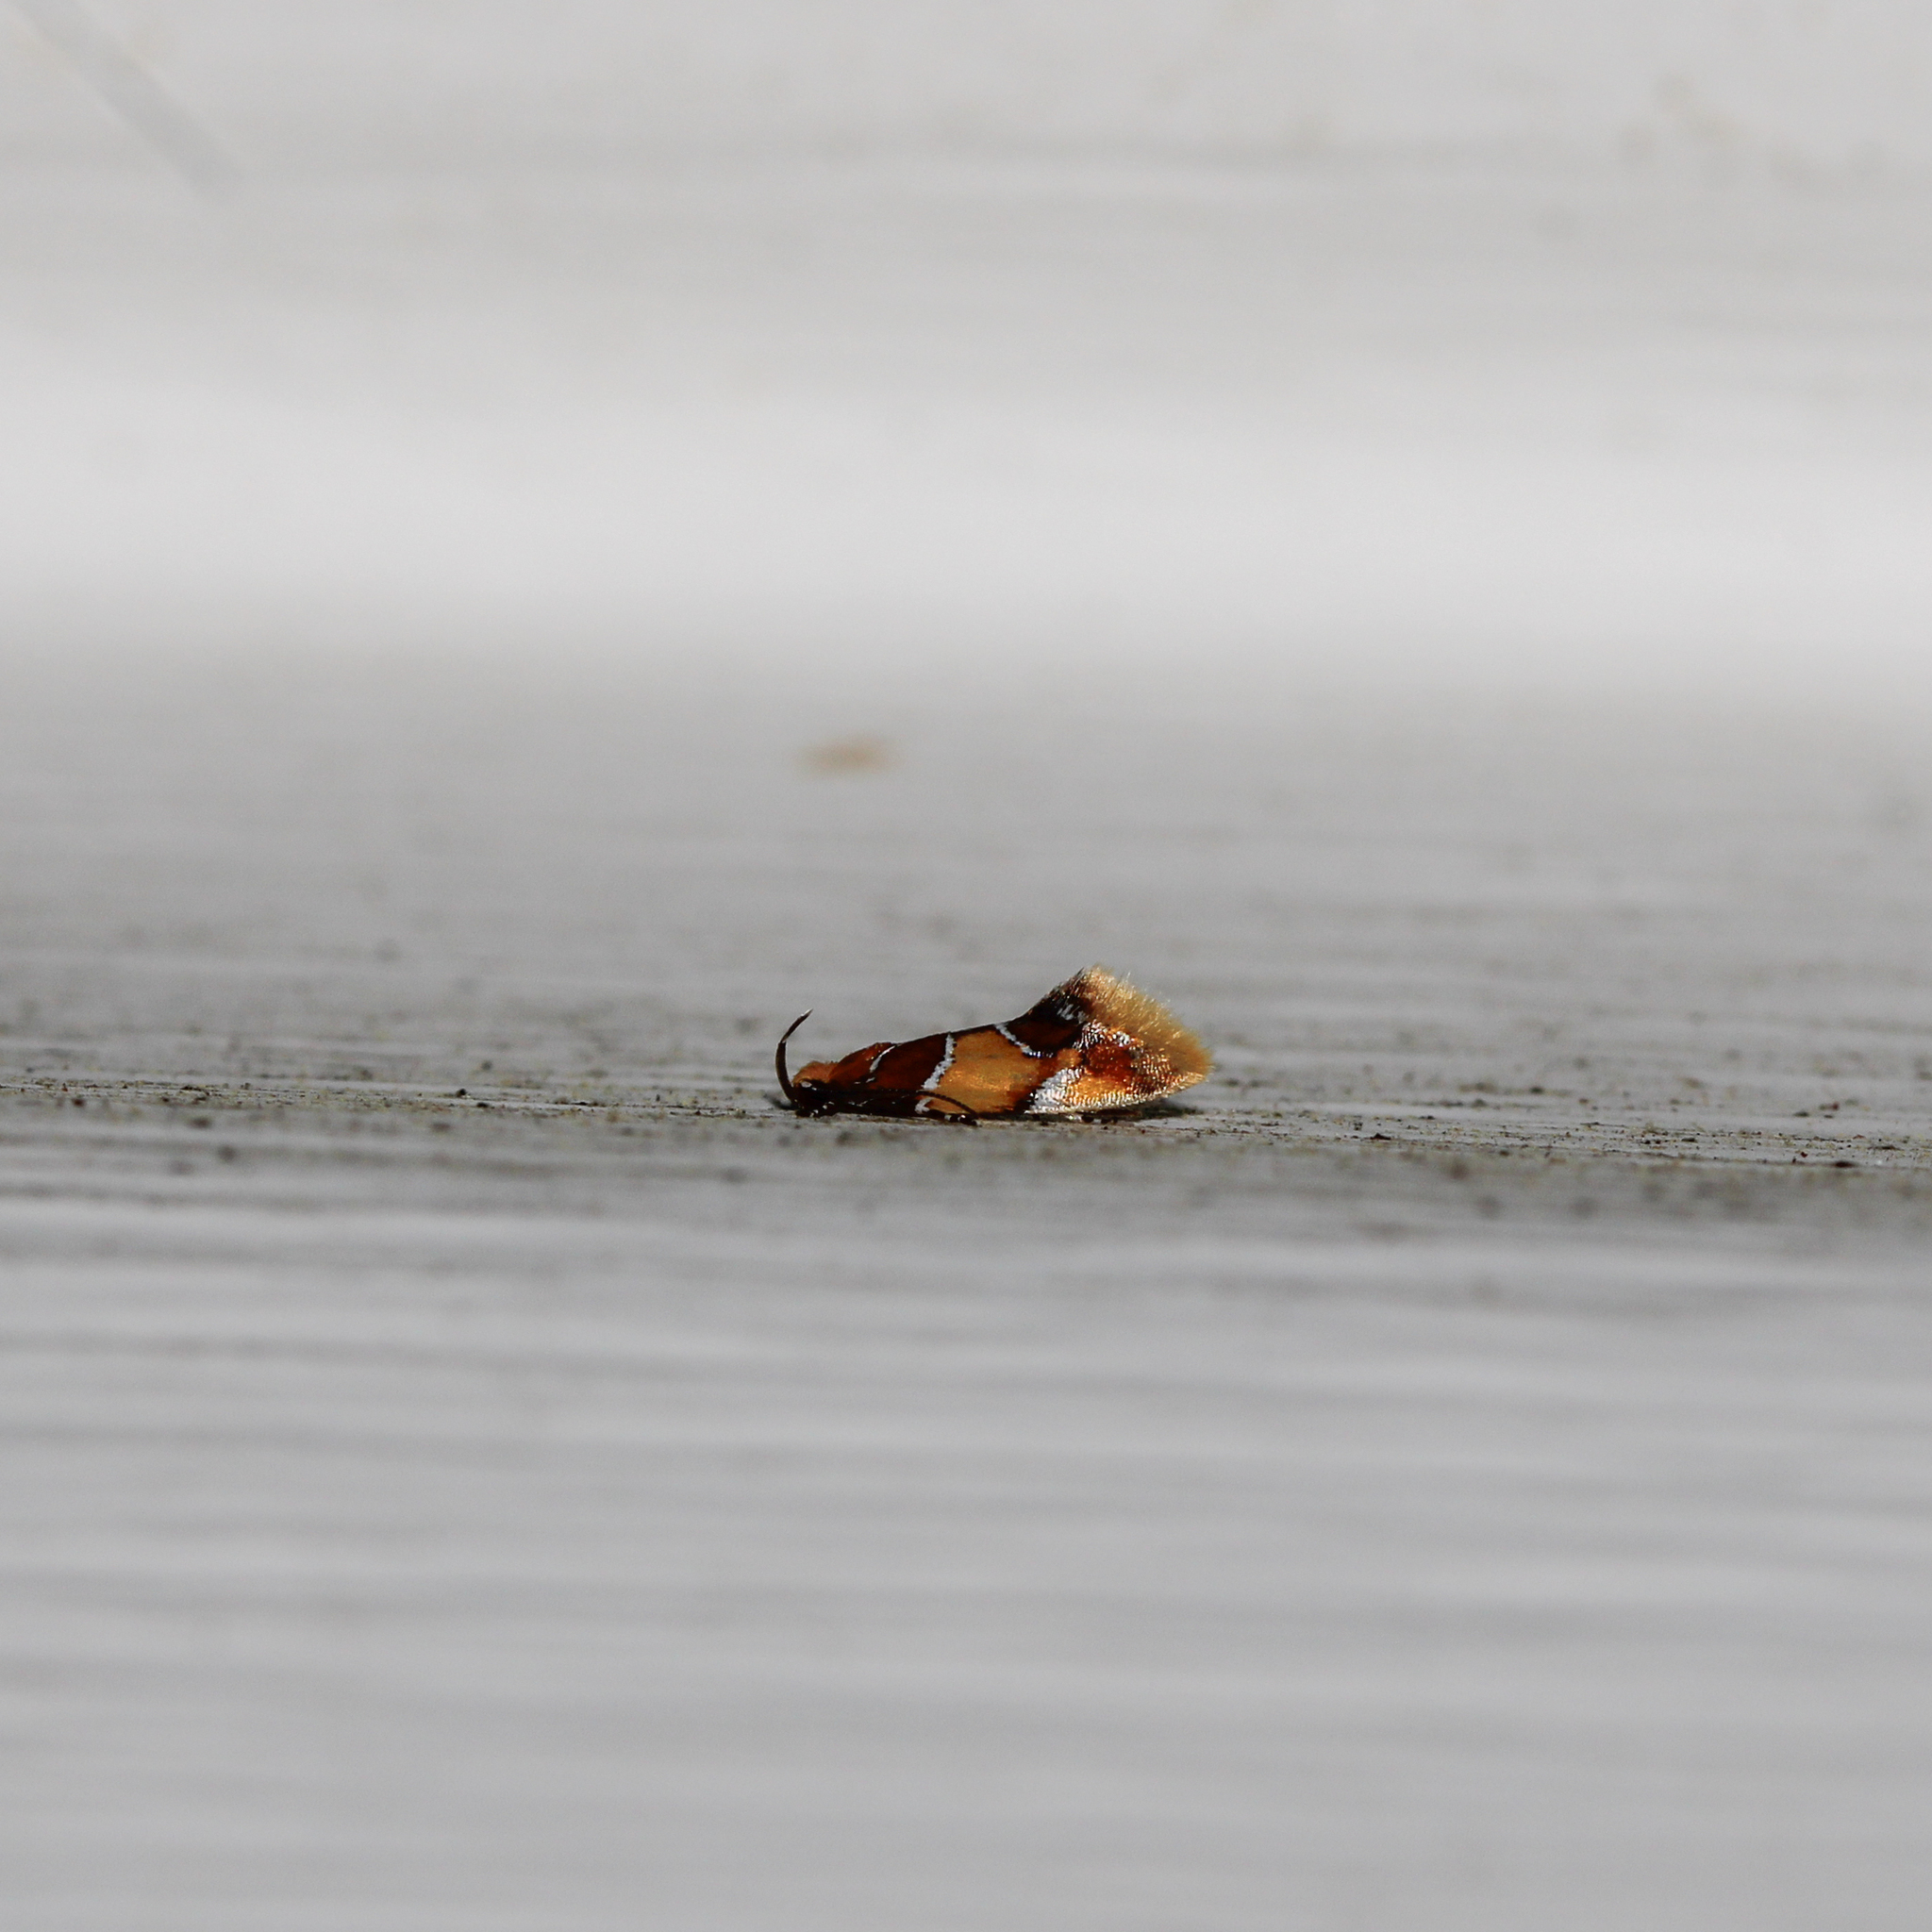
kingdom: Animalia
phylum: Arthropoda
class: Insecta
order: Lepidoptera
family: Oecophoridae
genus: Callima
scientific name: Callima argenticinctella
